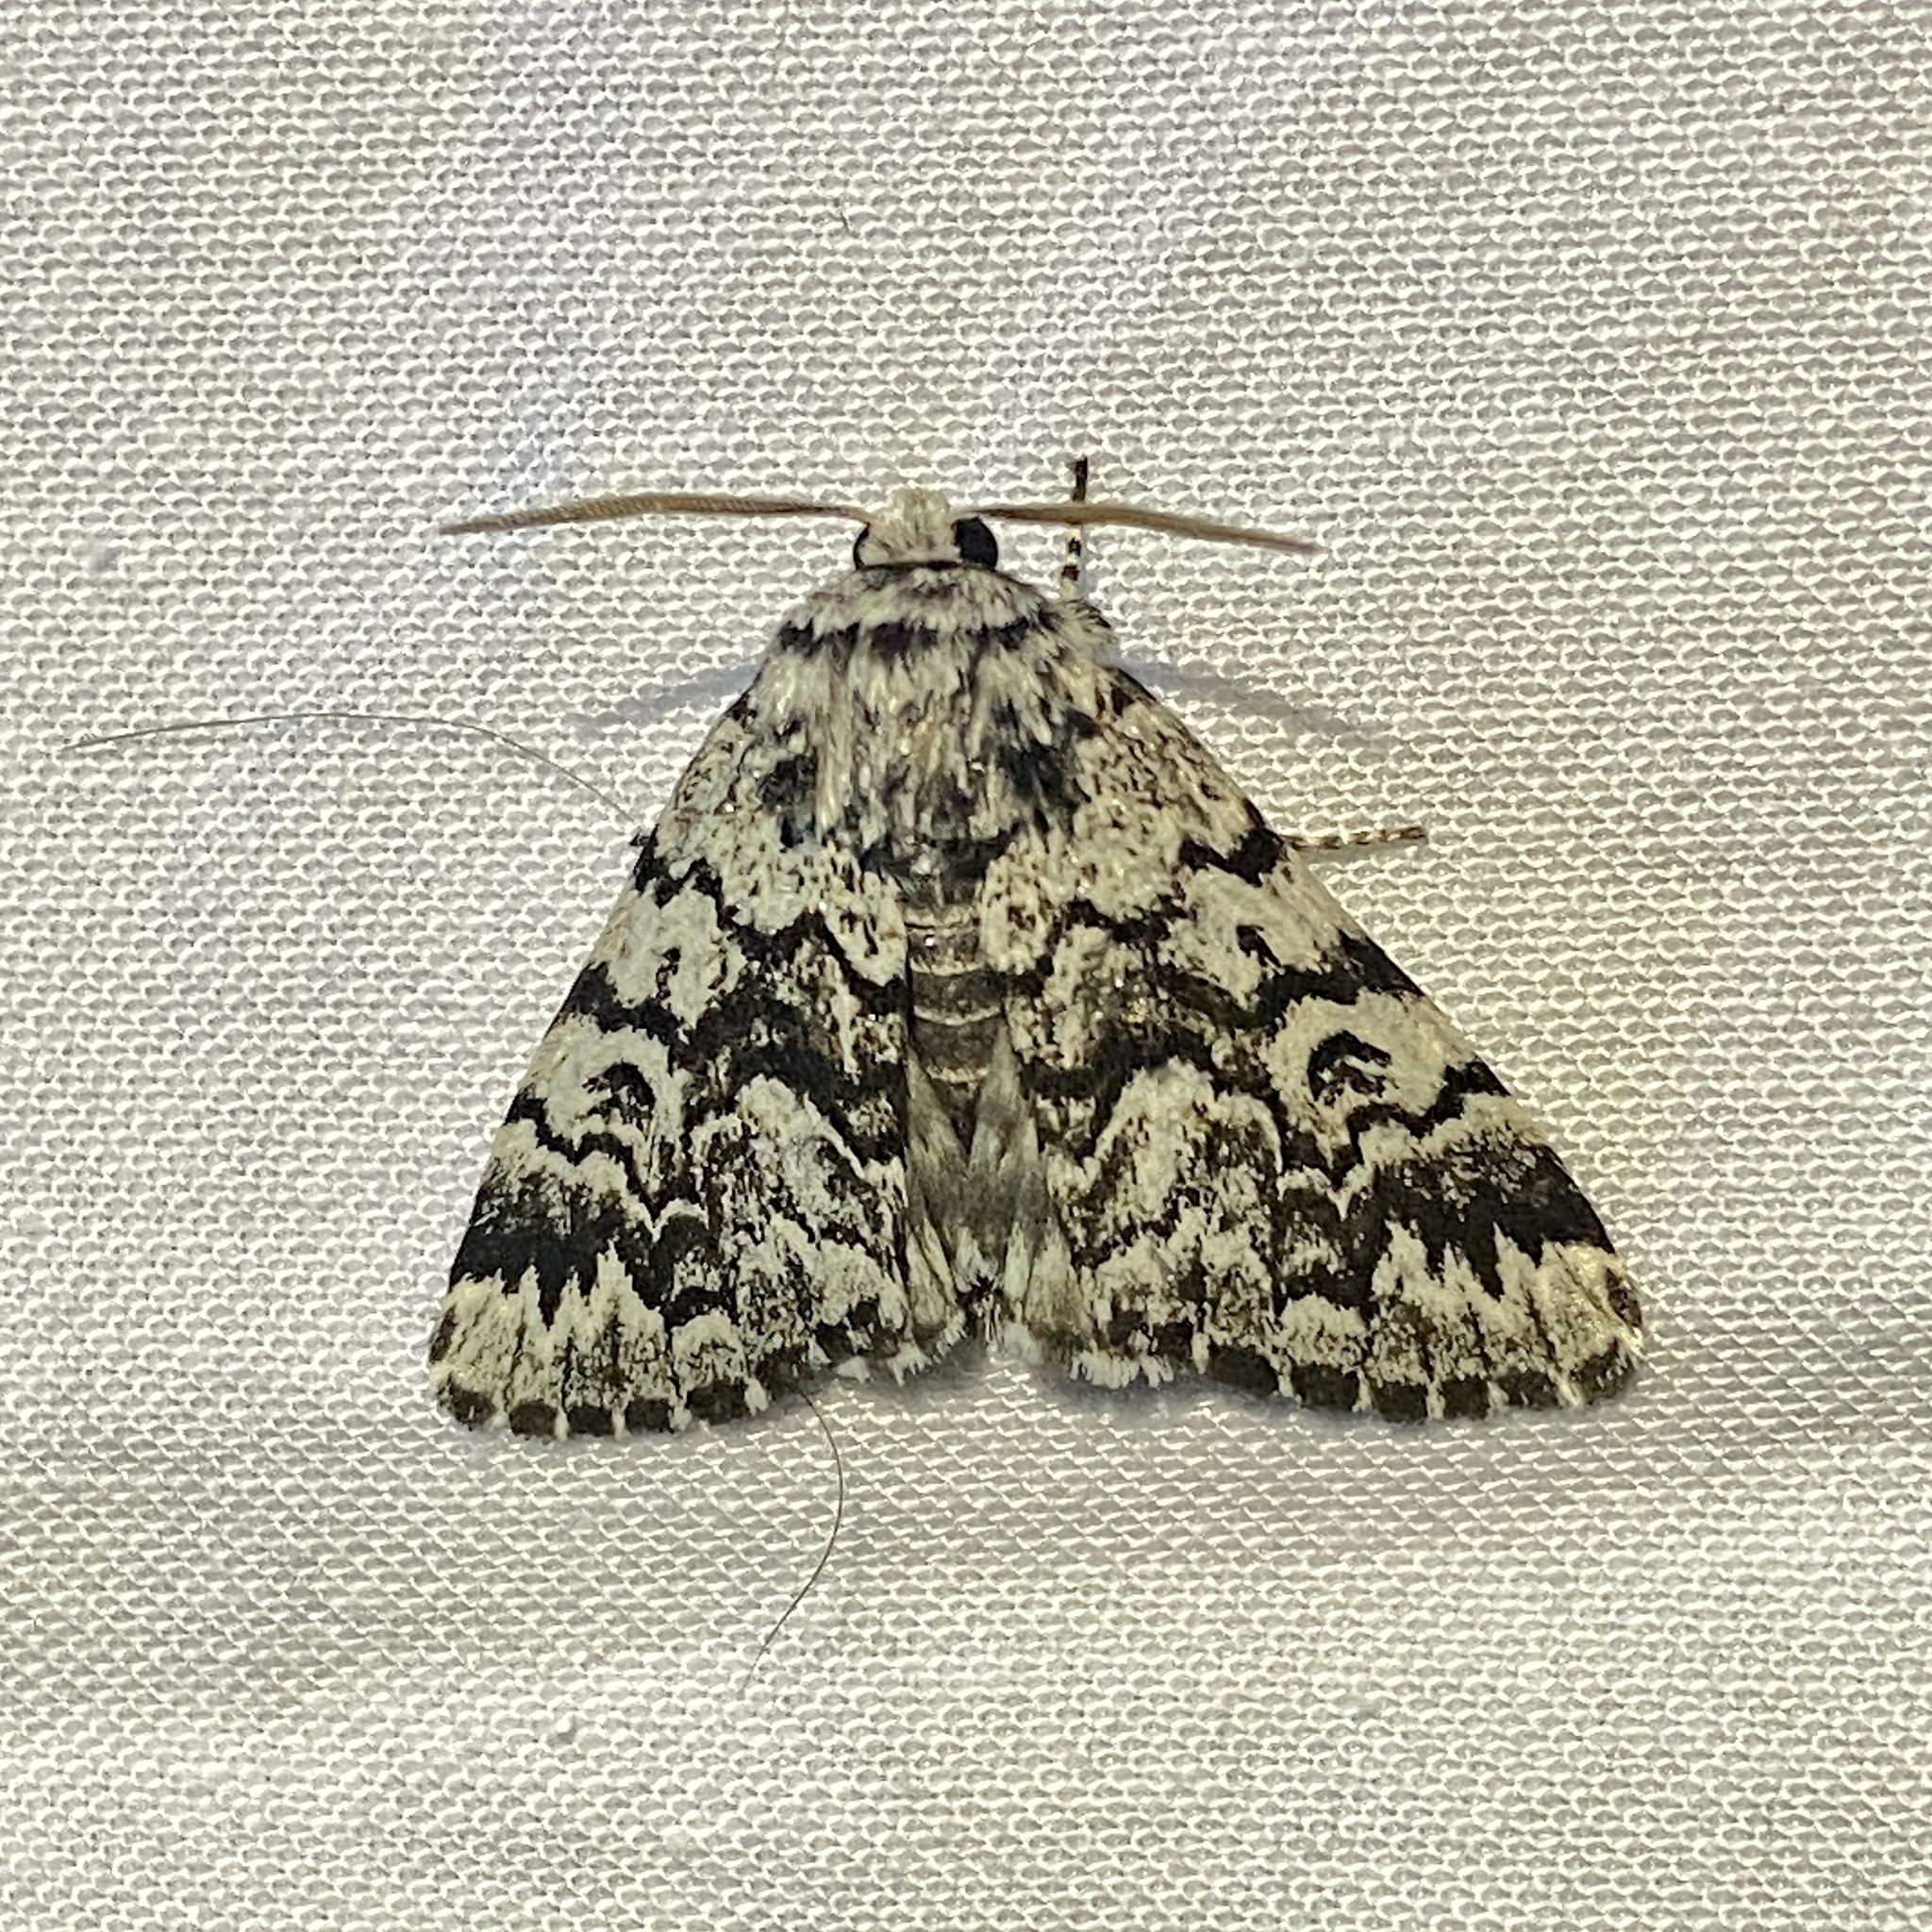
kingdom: Animalia
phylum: Arthropoda
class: Insecta
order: Lepidoptera
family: Noctuidae
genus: Panthea
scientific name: Panthea acronyctoides
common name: Black zigzag moth
